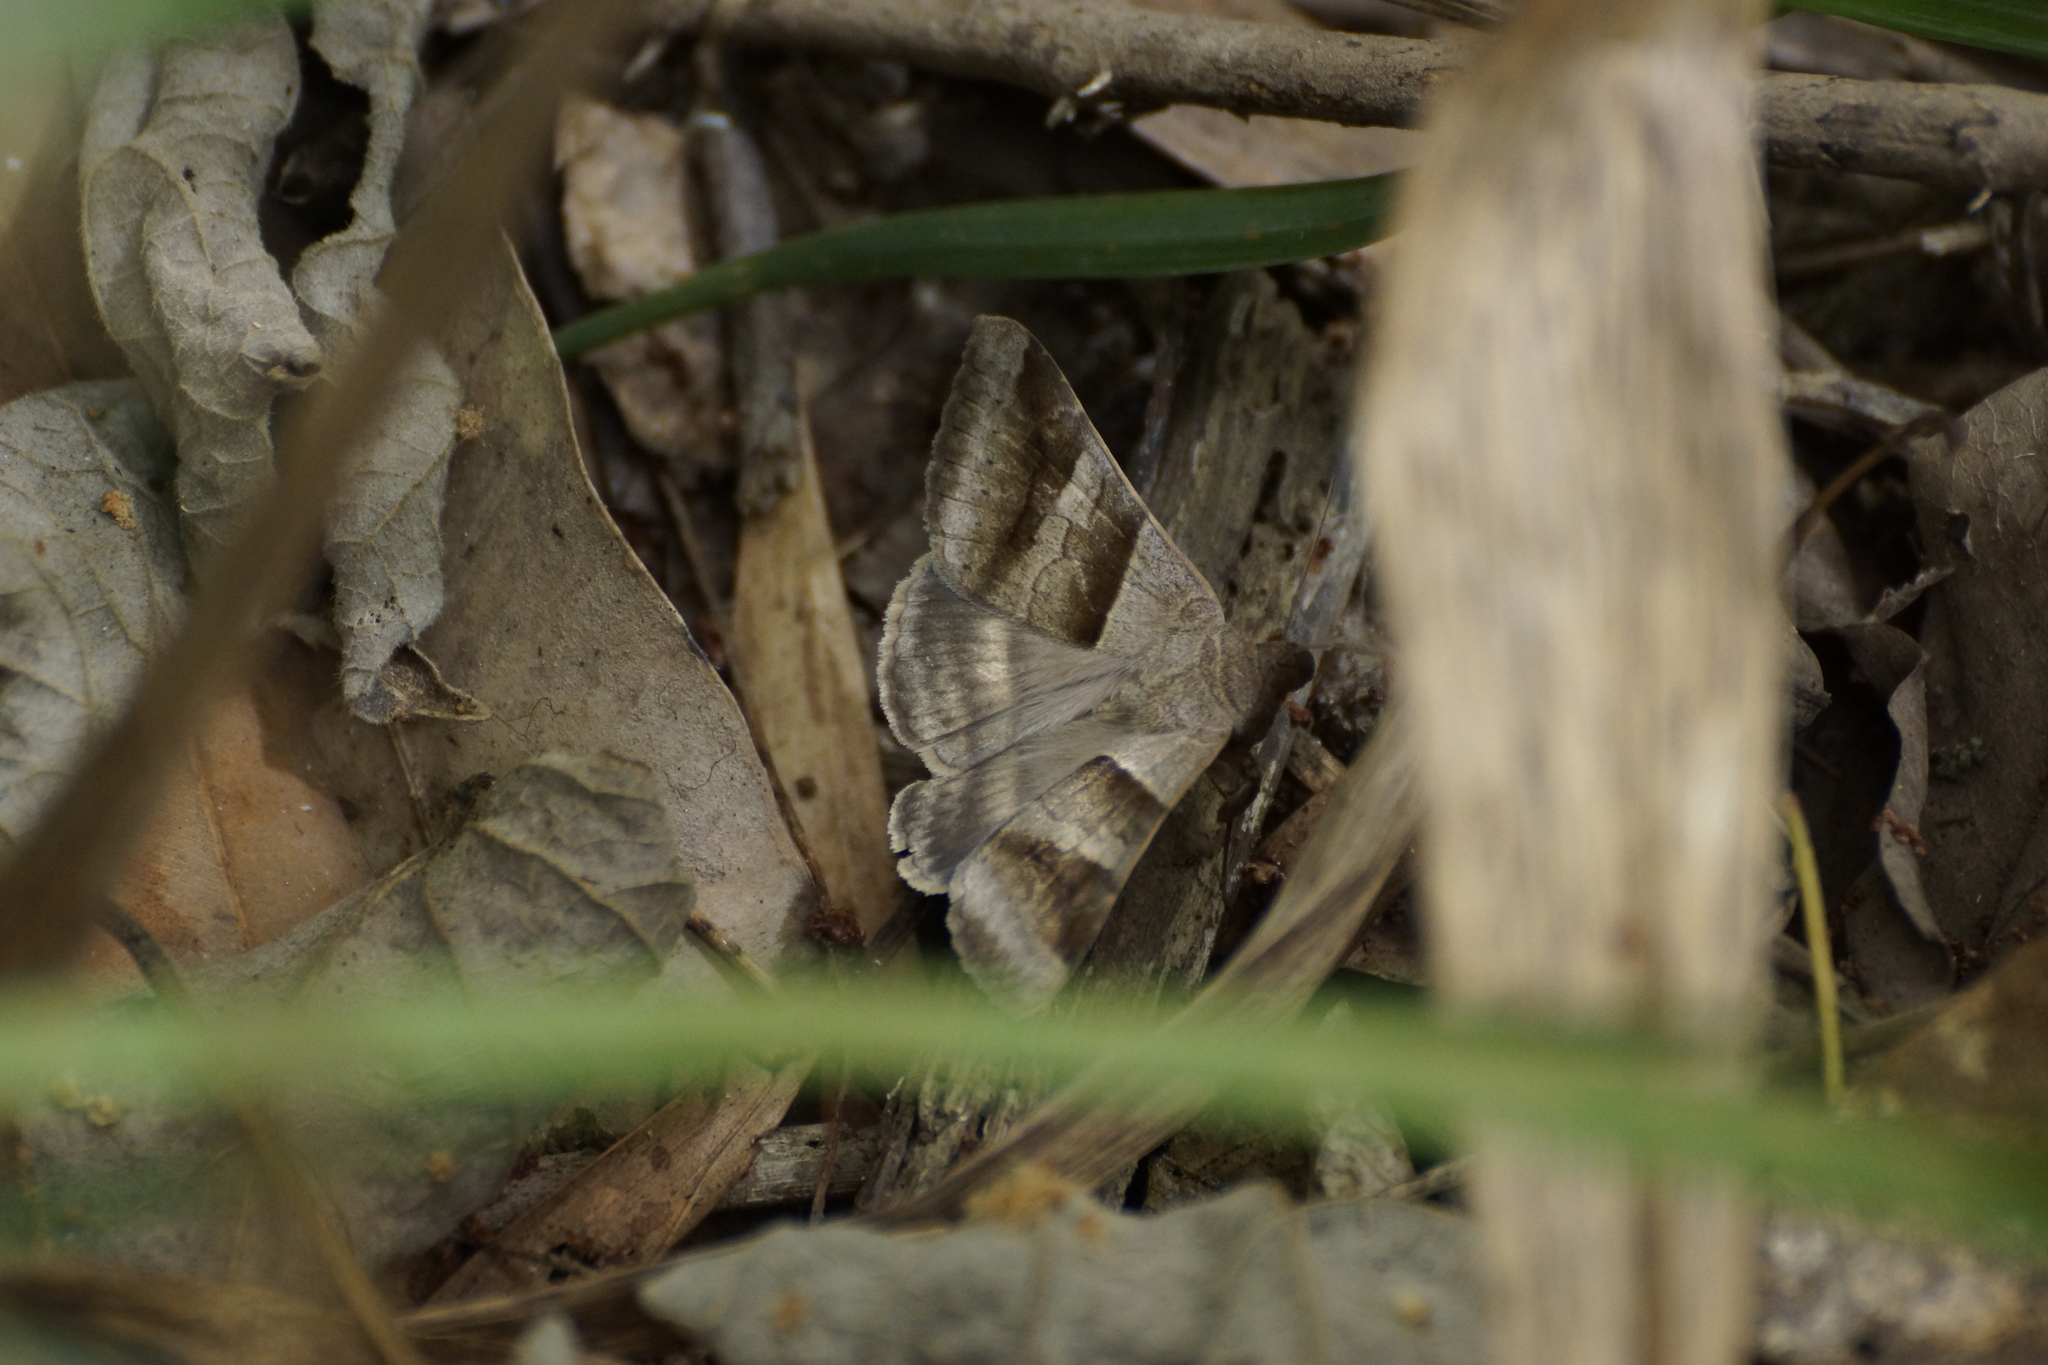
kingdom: Animalia
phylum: Arthropoda
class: Insecta
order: Lepidoptera
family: Erebidae
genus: Mocis
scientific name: Mocis trifasciata
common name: Triple-barred
